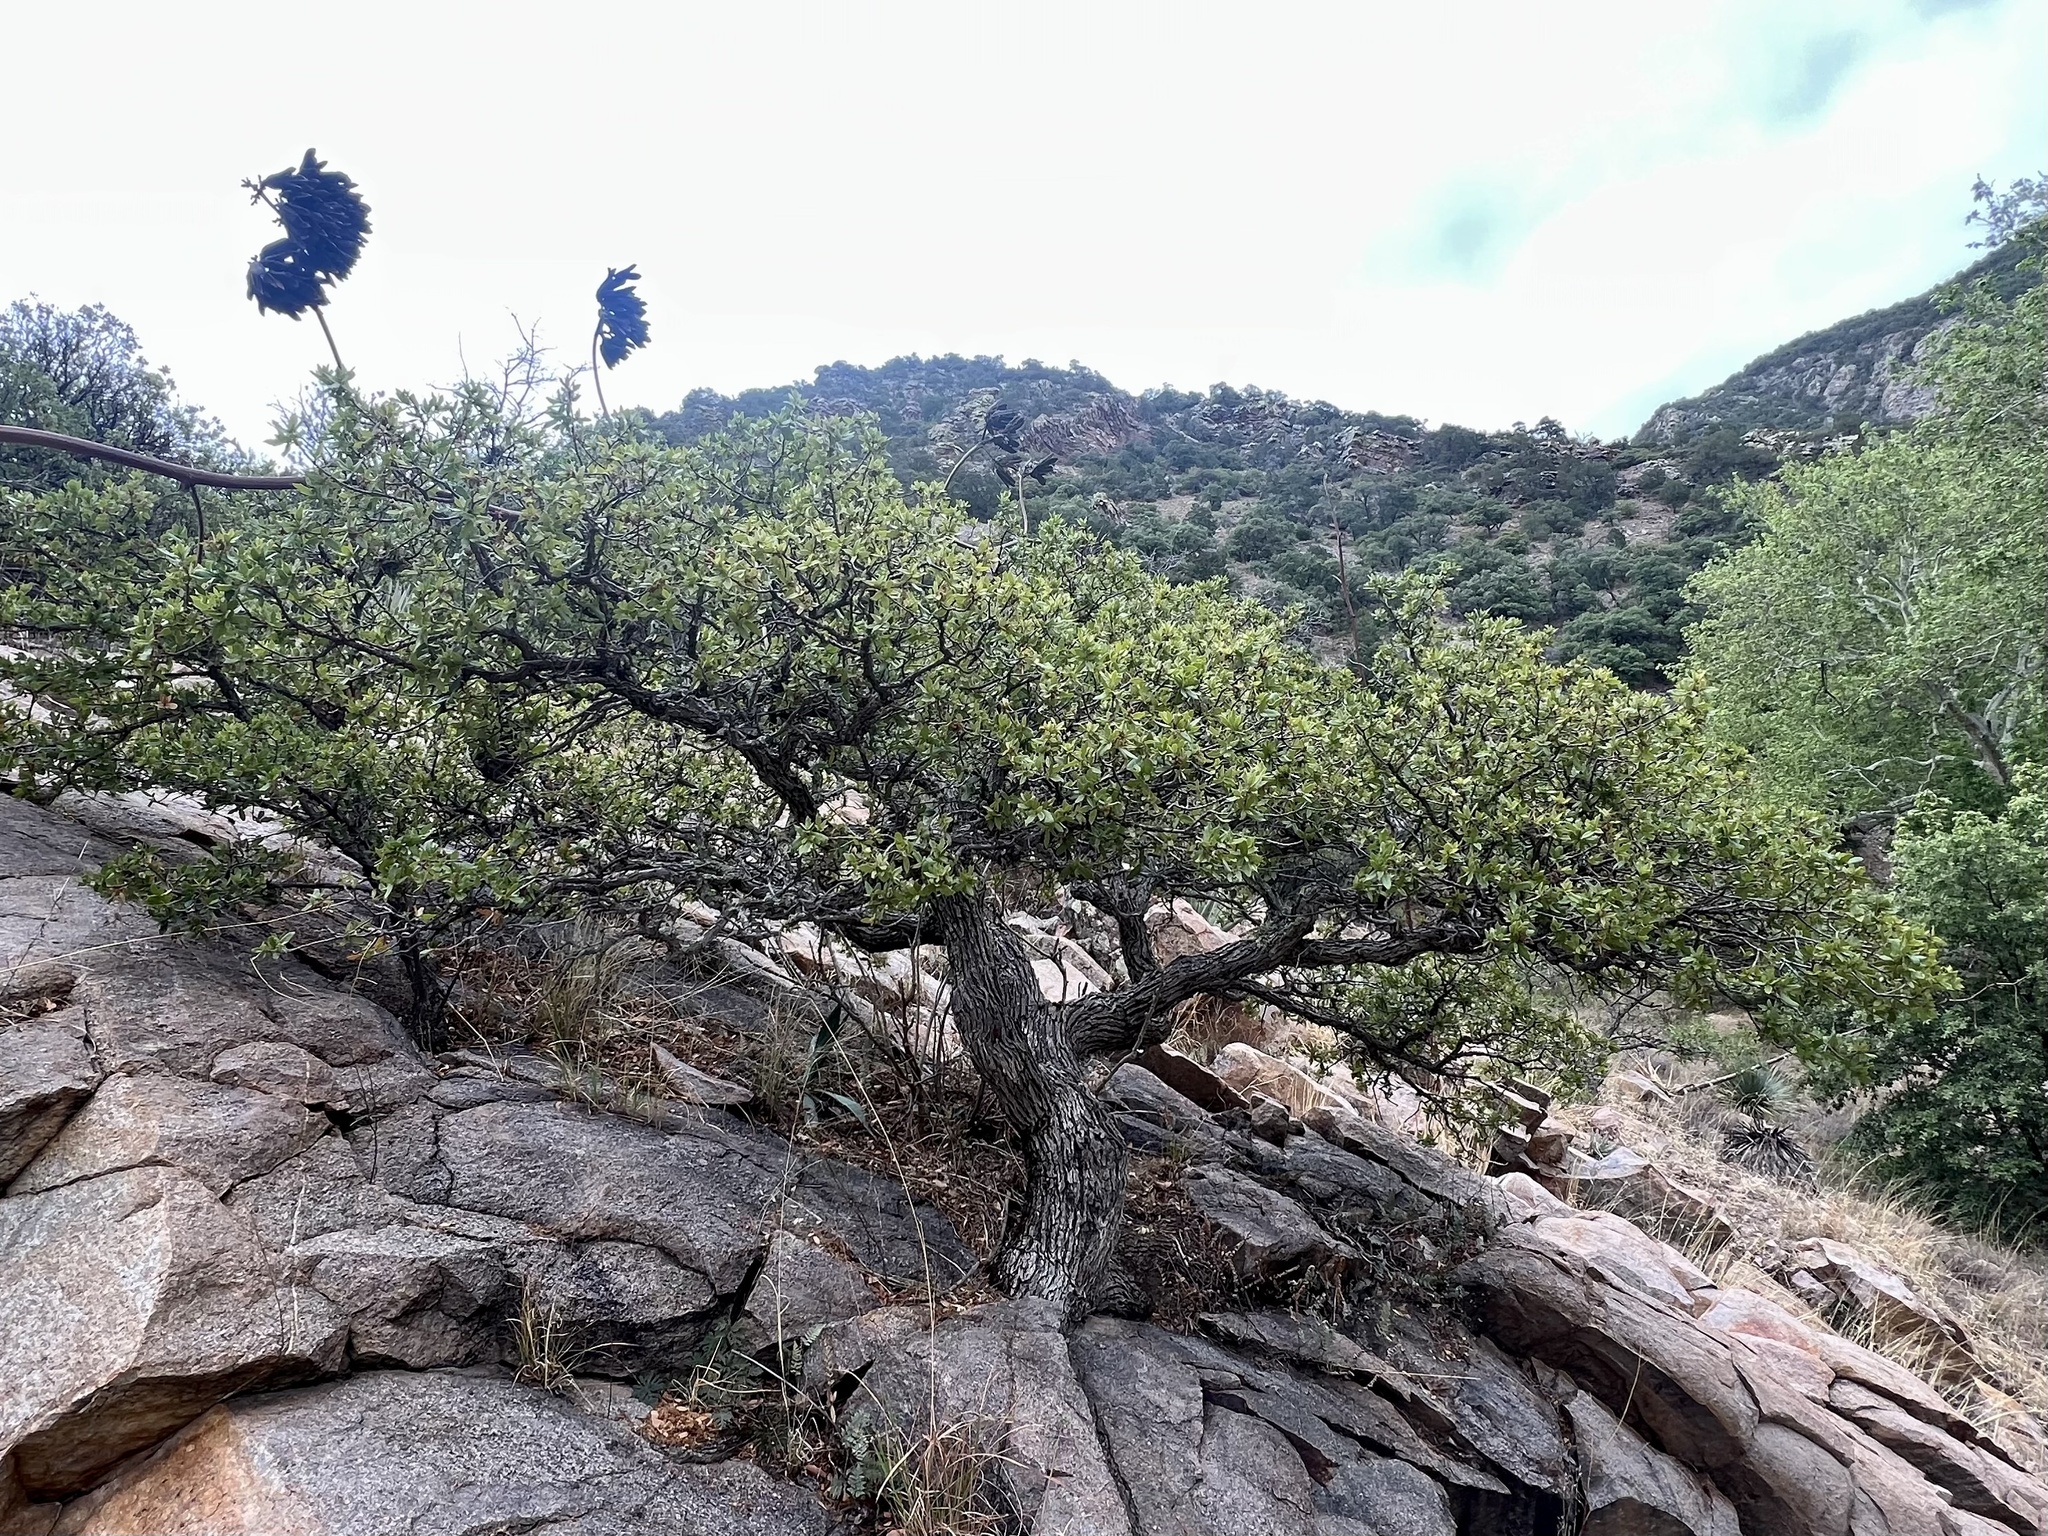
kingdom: Plantae
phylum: Tracheophyta
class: Magnoliopsida
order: Fagales
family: Fagaceae
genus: Quercus
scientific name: Quercus emoryi
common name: Emory oak
